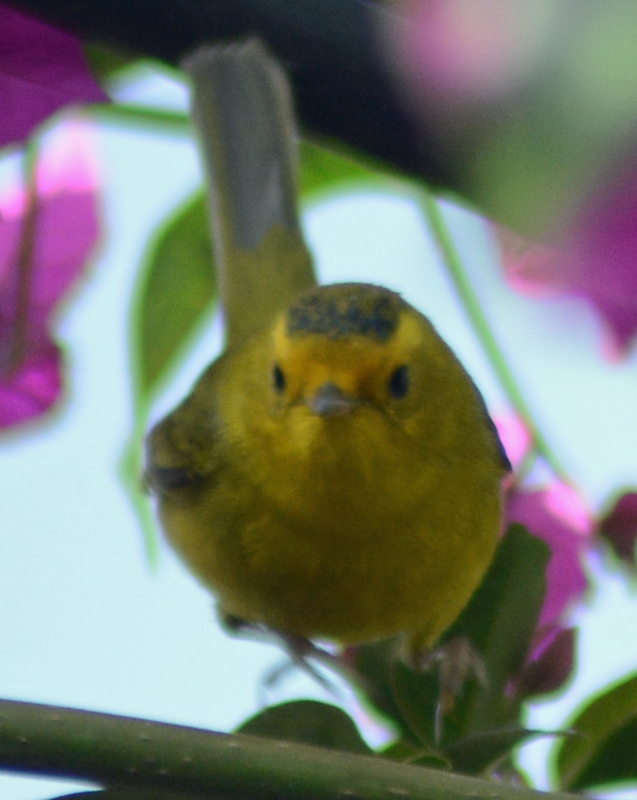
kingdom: Animalia
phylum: Chordata
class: Aves
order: Passeriformes
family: Parulidae
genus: Cardellina
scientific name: Cardellina pusilla
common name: Wilson's warbler
